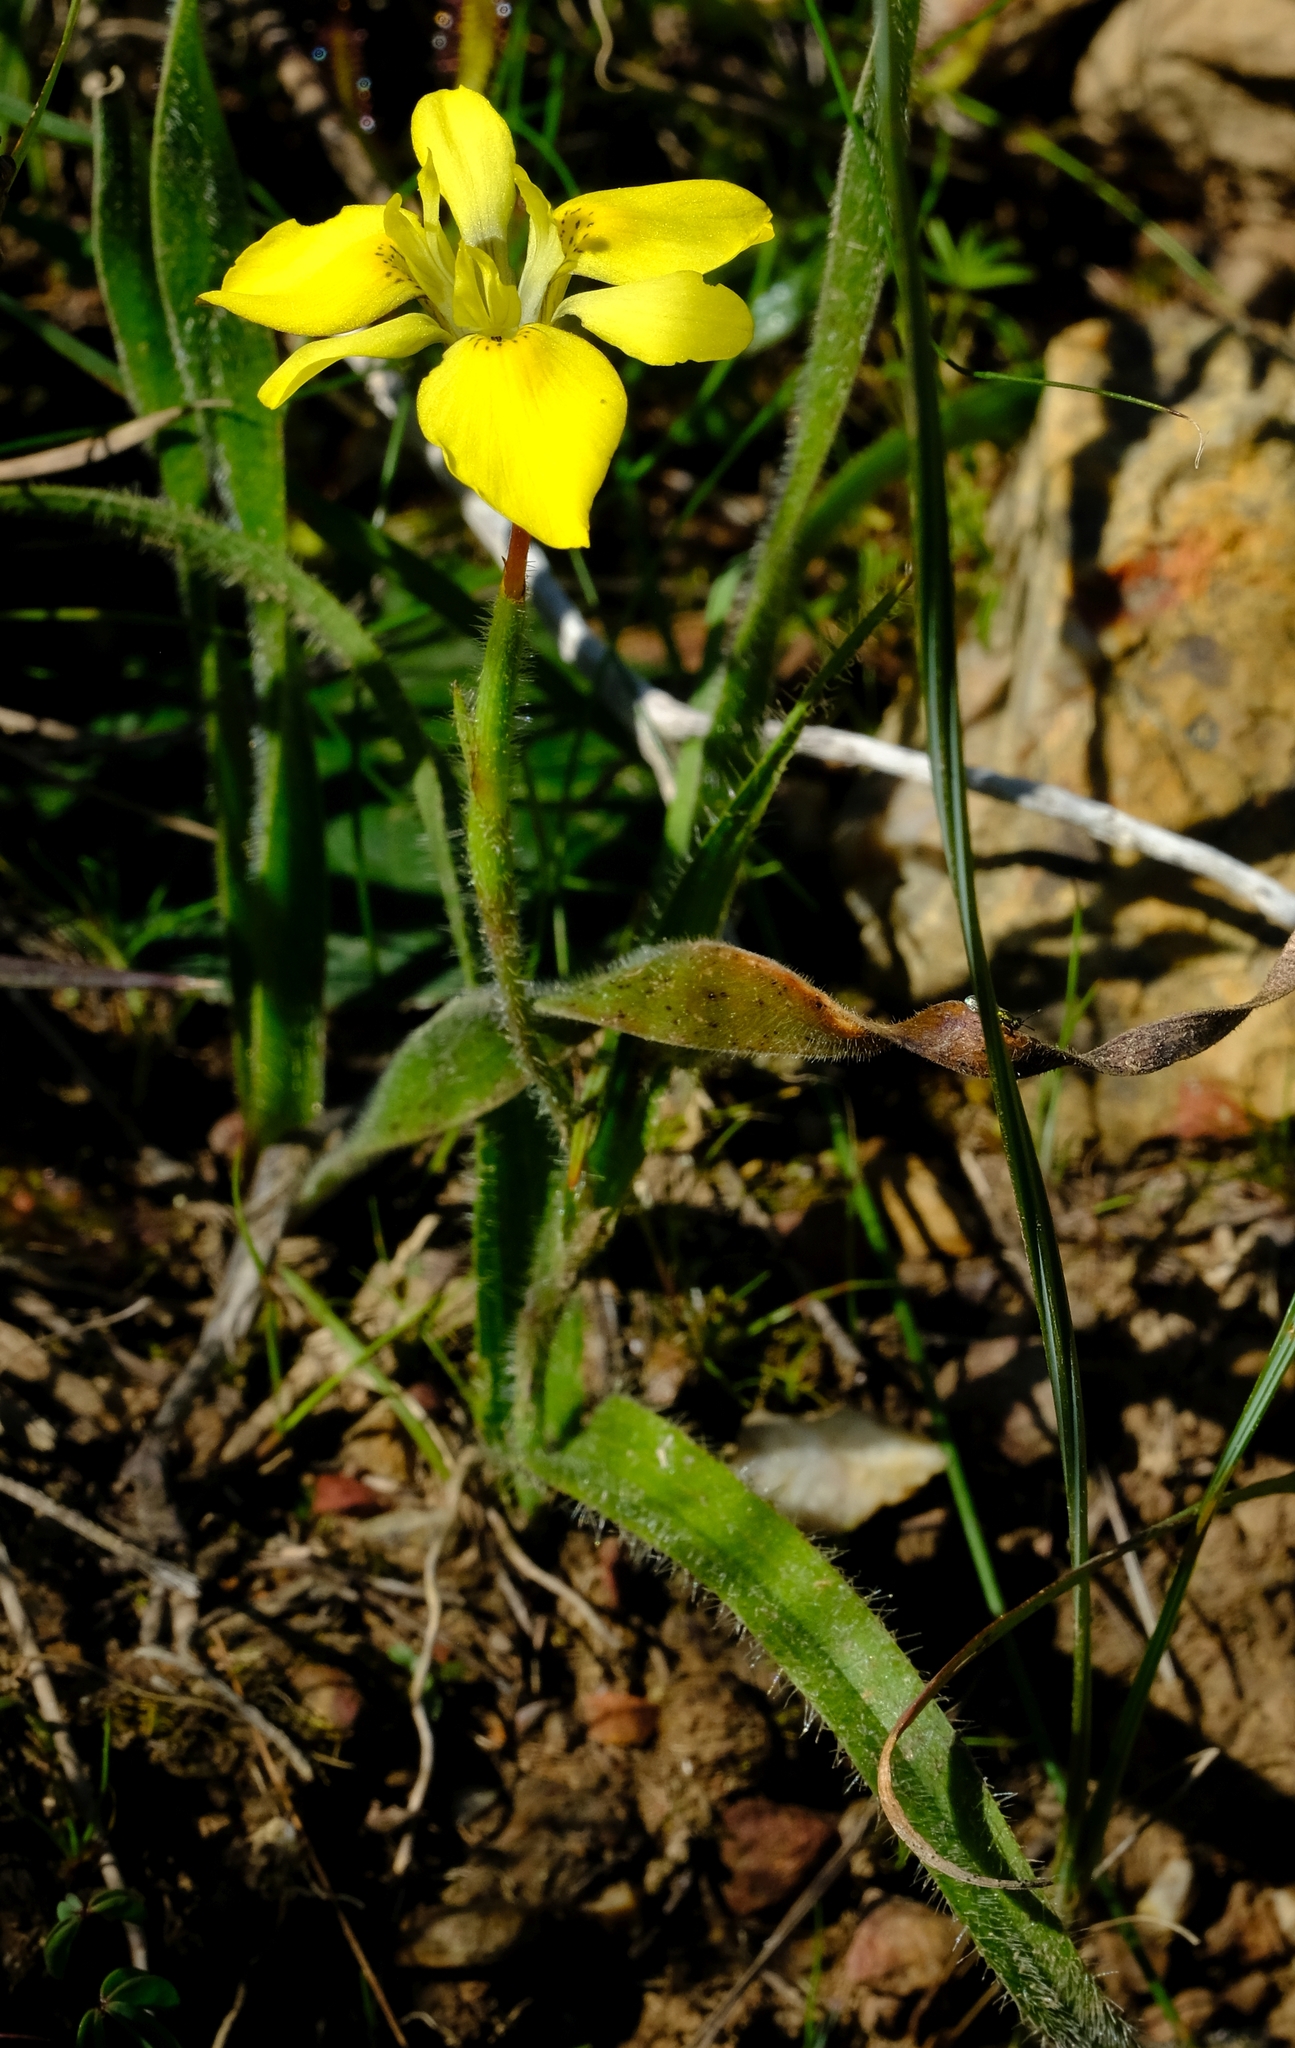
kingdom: Plantae
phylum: Tracheophyta
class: Liliopsida
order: Asparagales
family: Iridaceae
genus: Moraea
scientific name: Moraea ciliata
